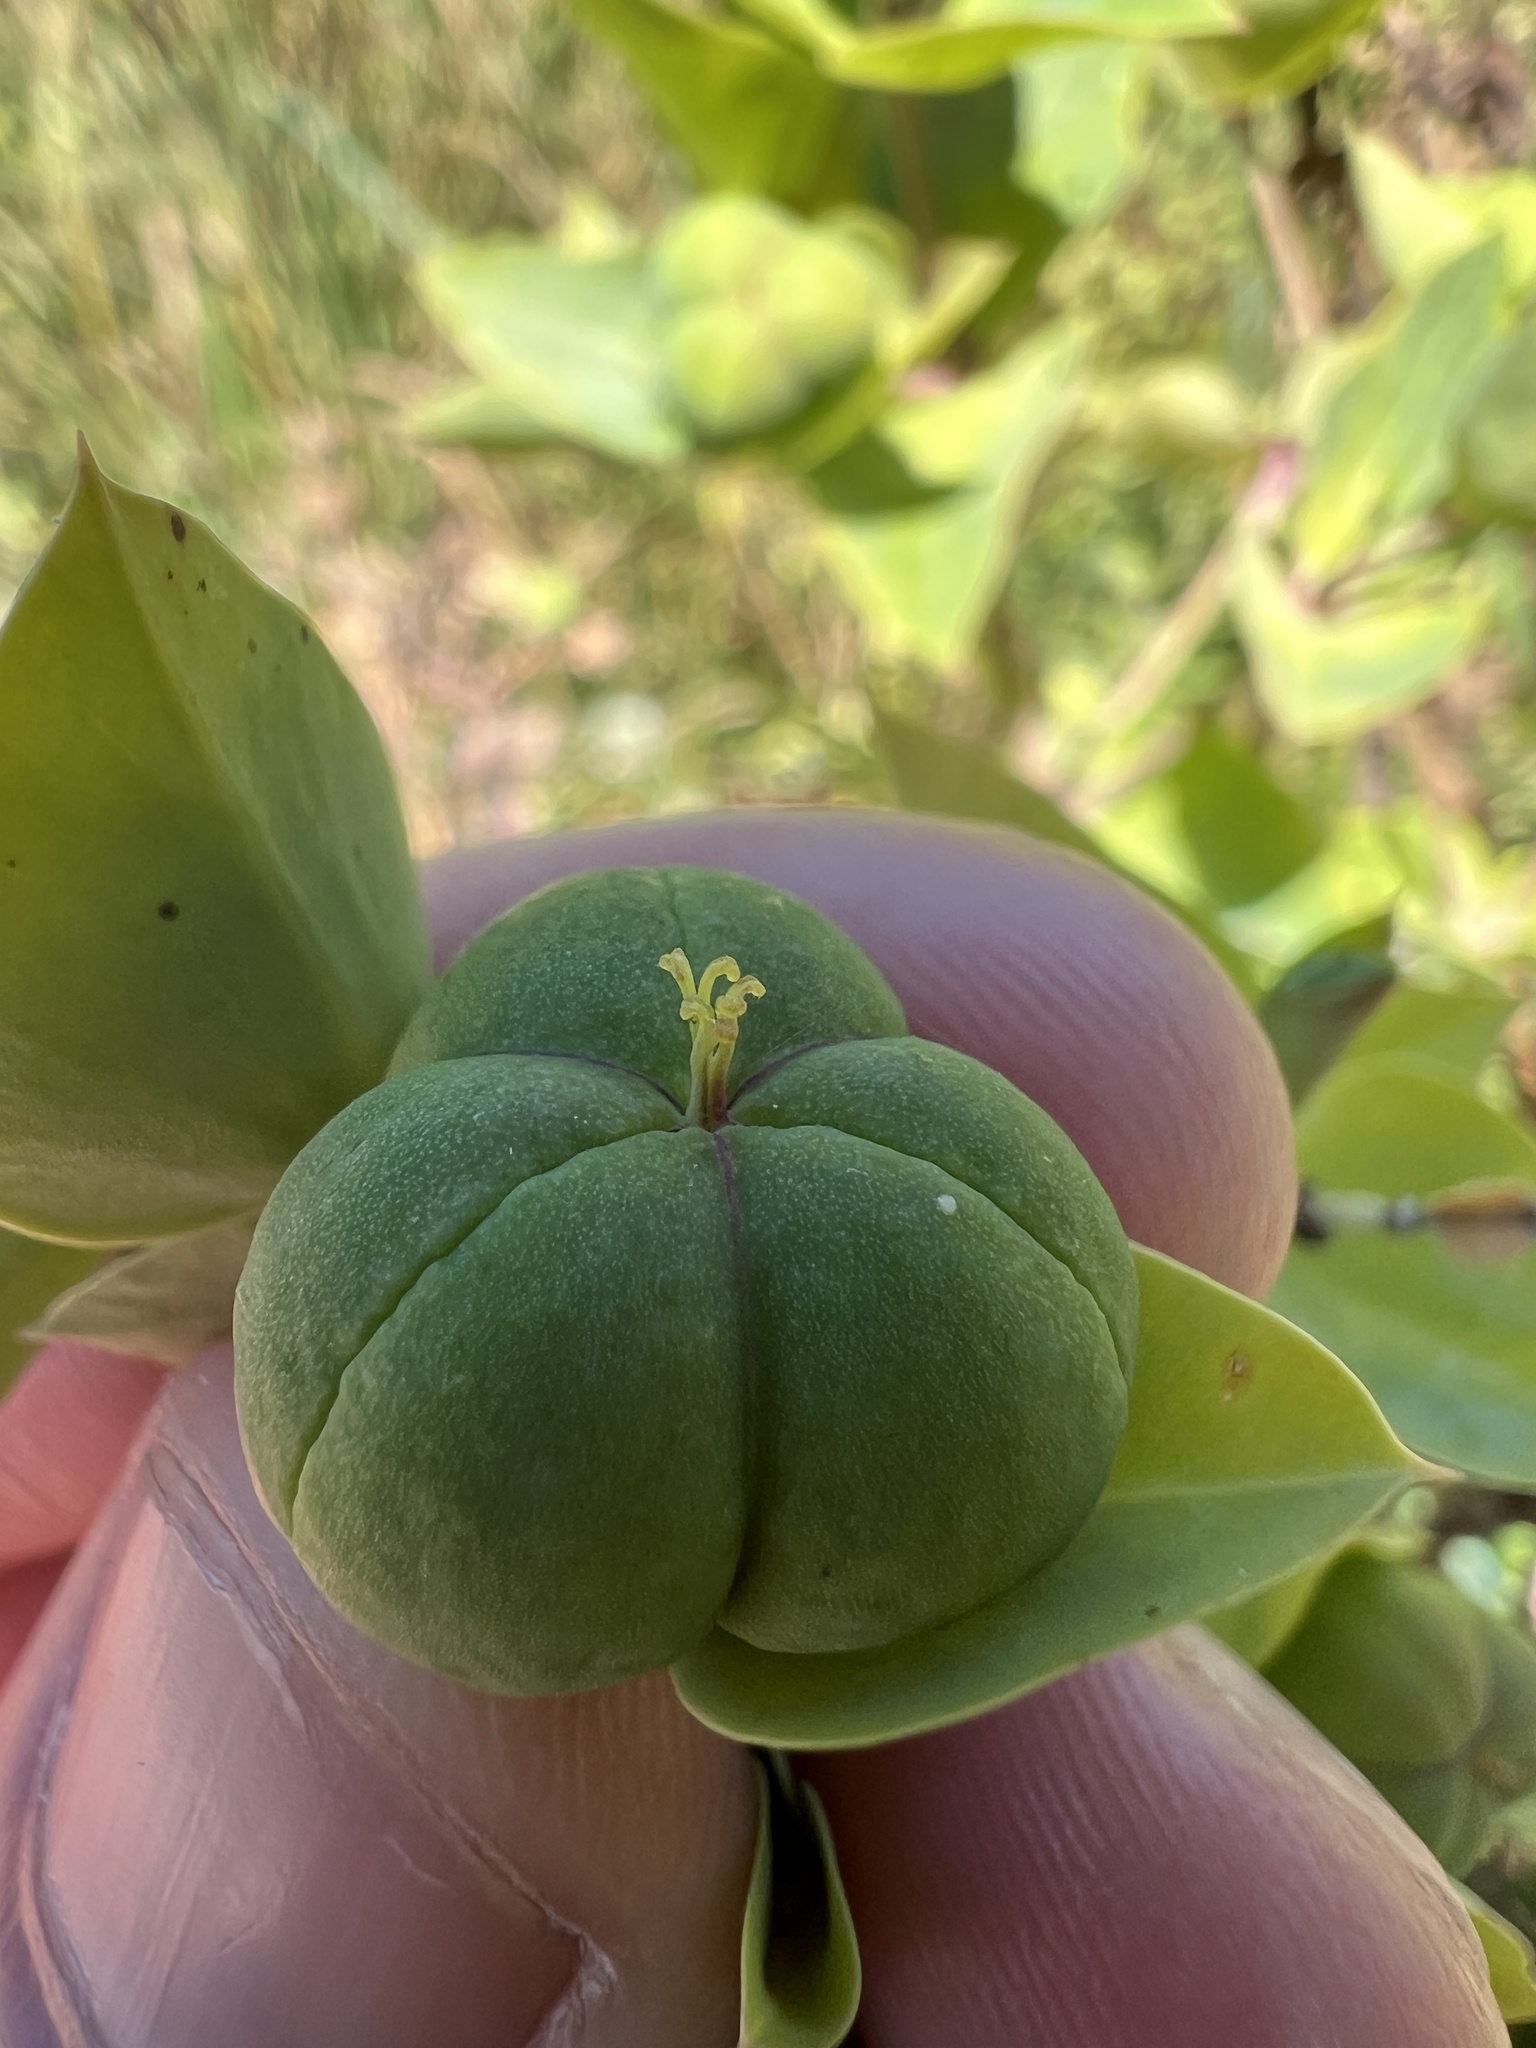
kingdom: Plantae
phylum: Tracheophyta
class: Magnoliopsida
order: Malpighiales
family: Euphorbiaceae
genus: Euphorbia
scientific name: Euphorbia lathyris
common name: Caper spurge
